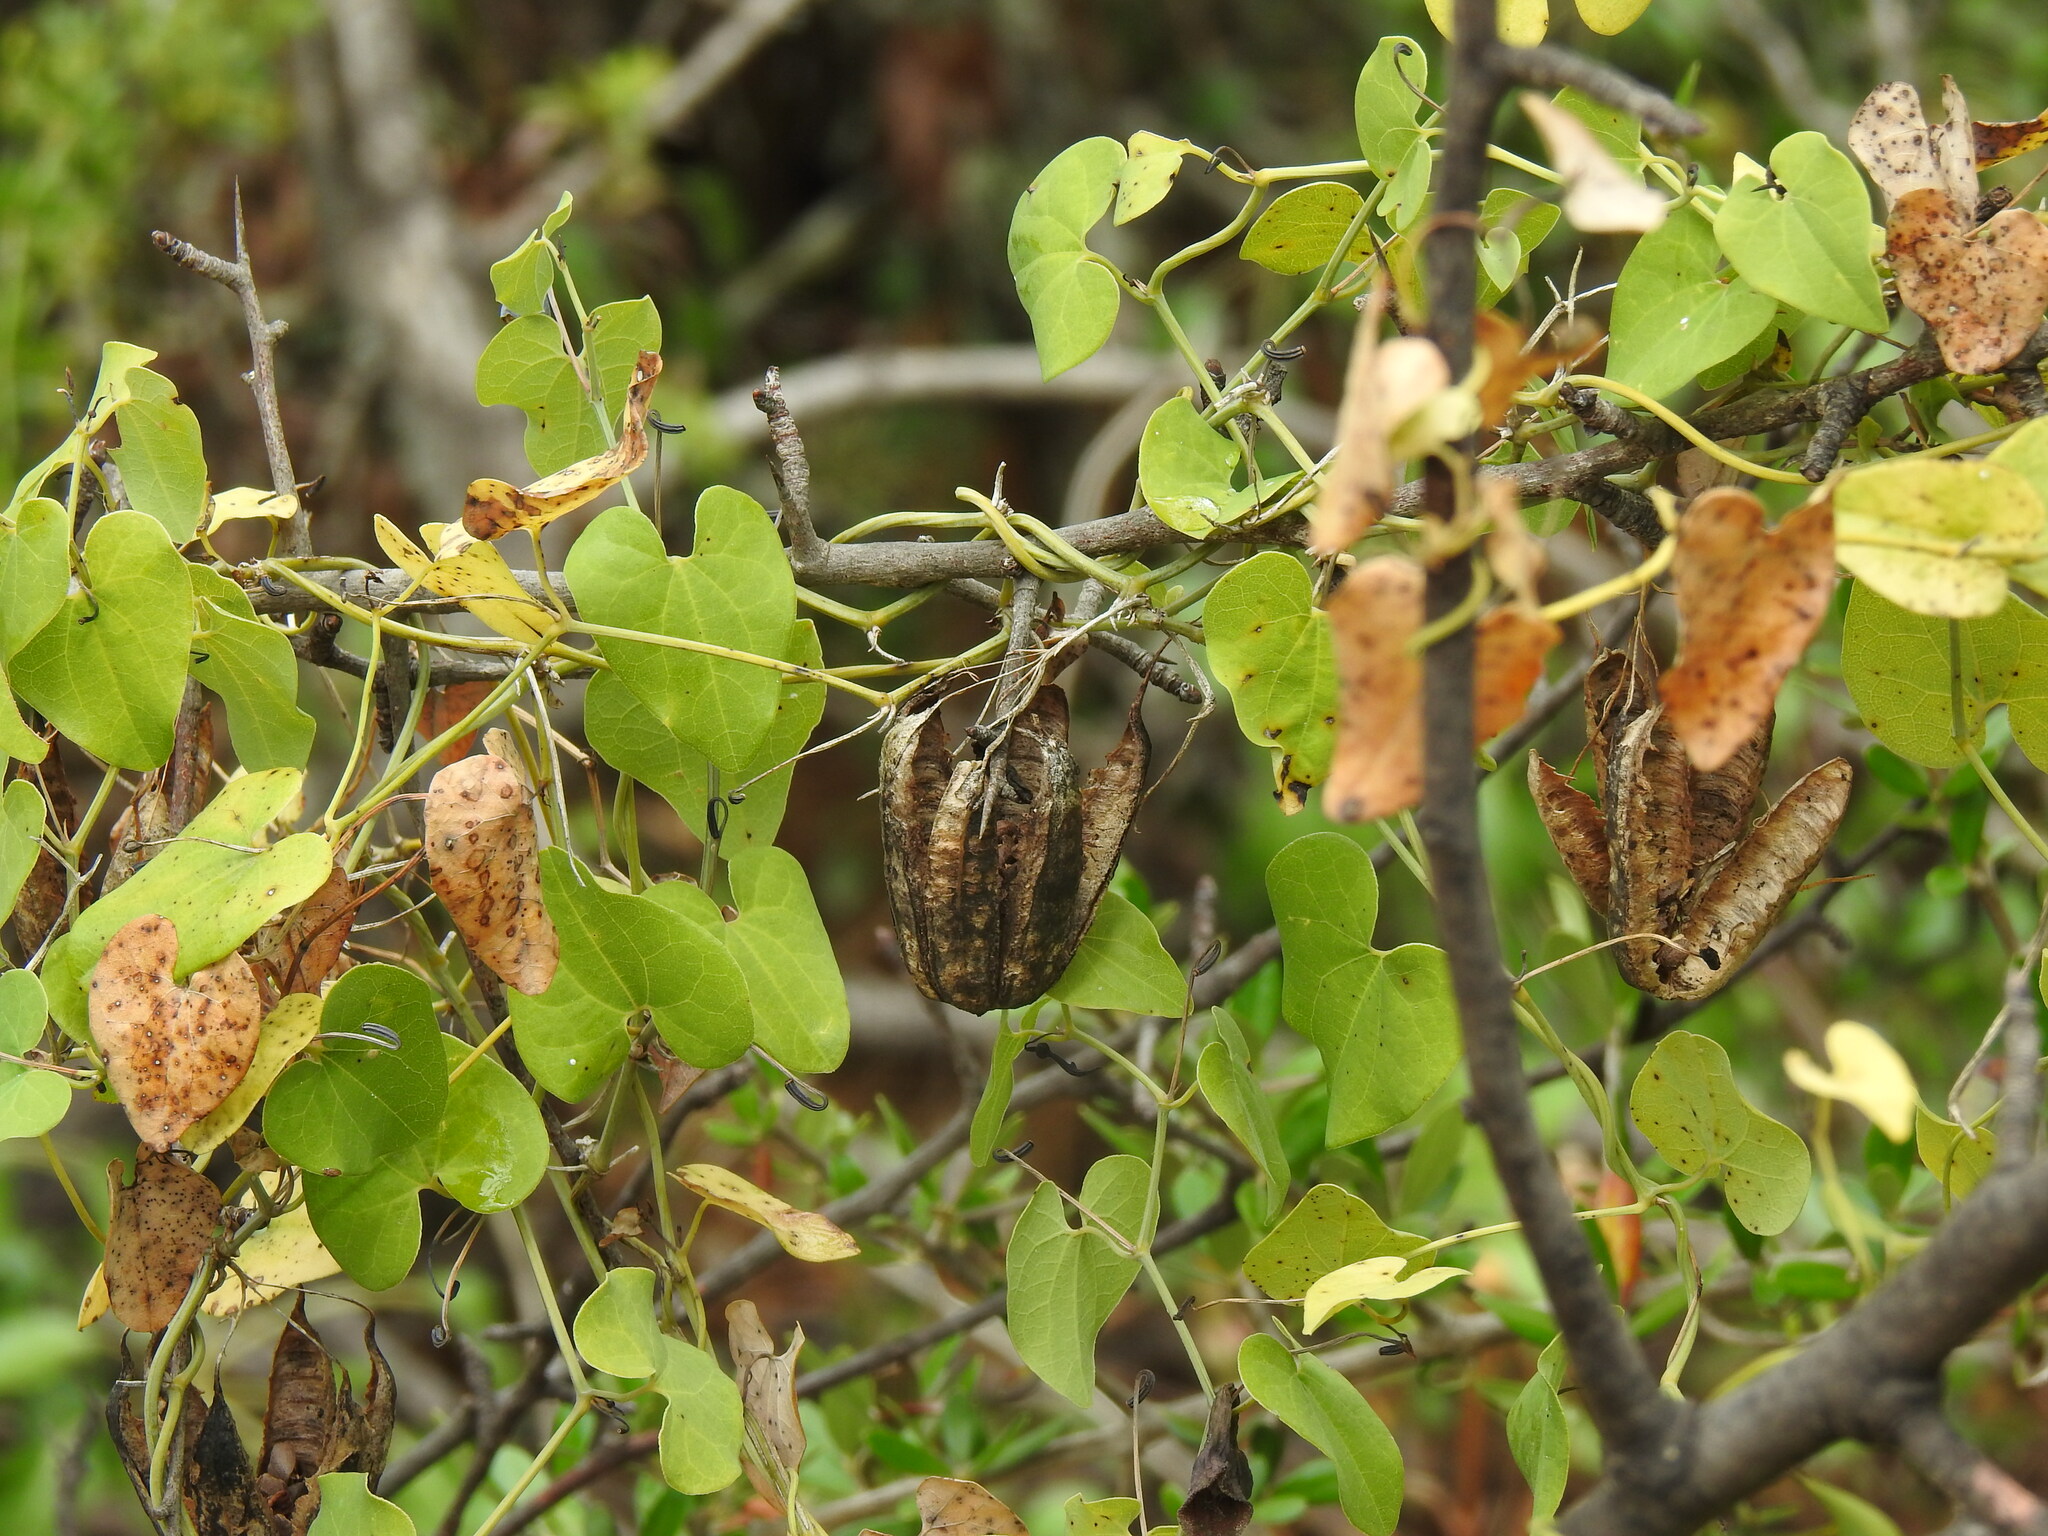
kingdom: Plantae
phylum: Tracheophyta
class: Magnoliopsida
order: Piperales
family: Aristolochiaceae
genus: Aristolochia
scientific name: Aristolochia baetica
